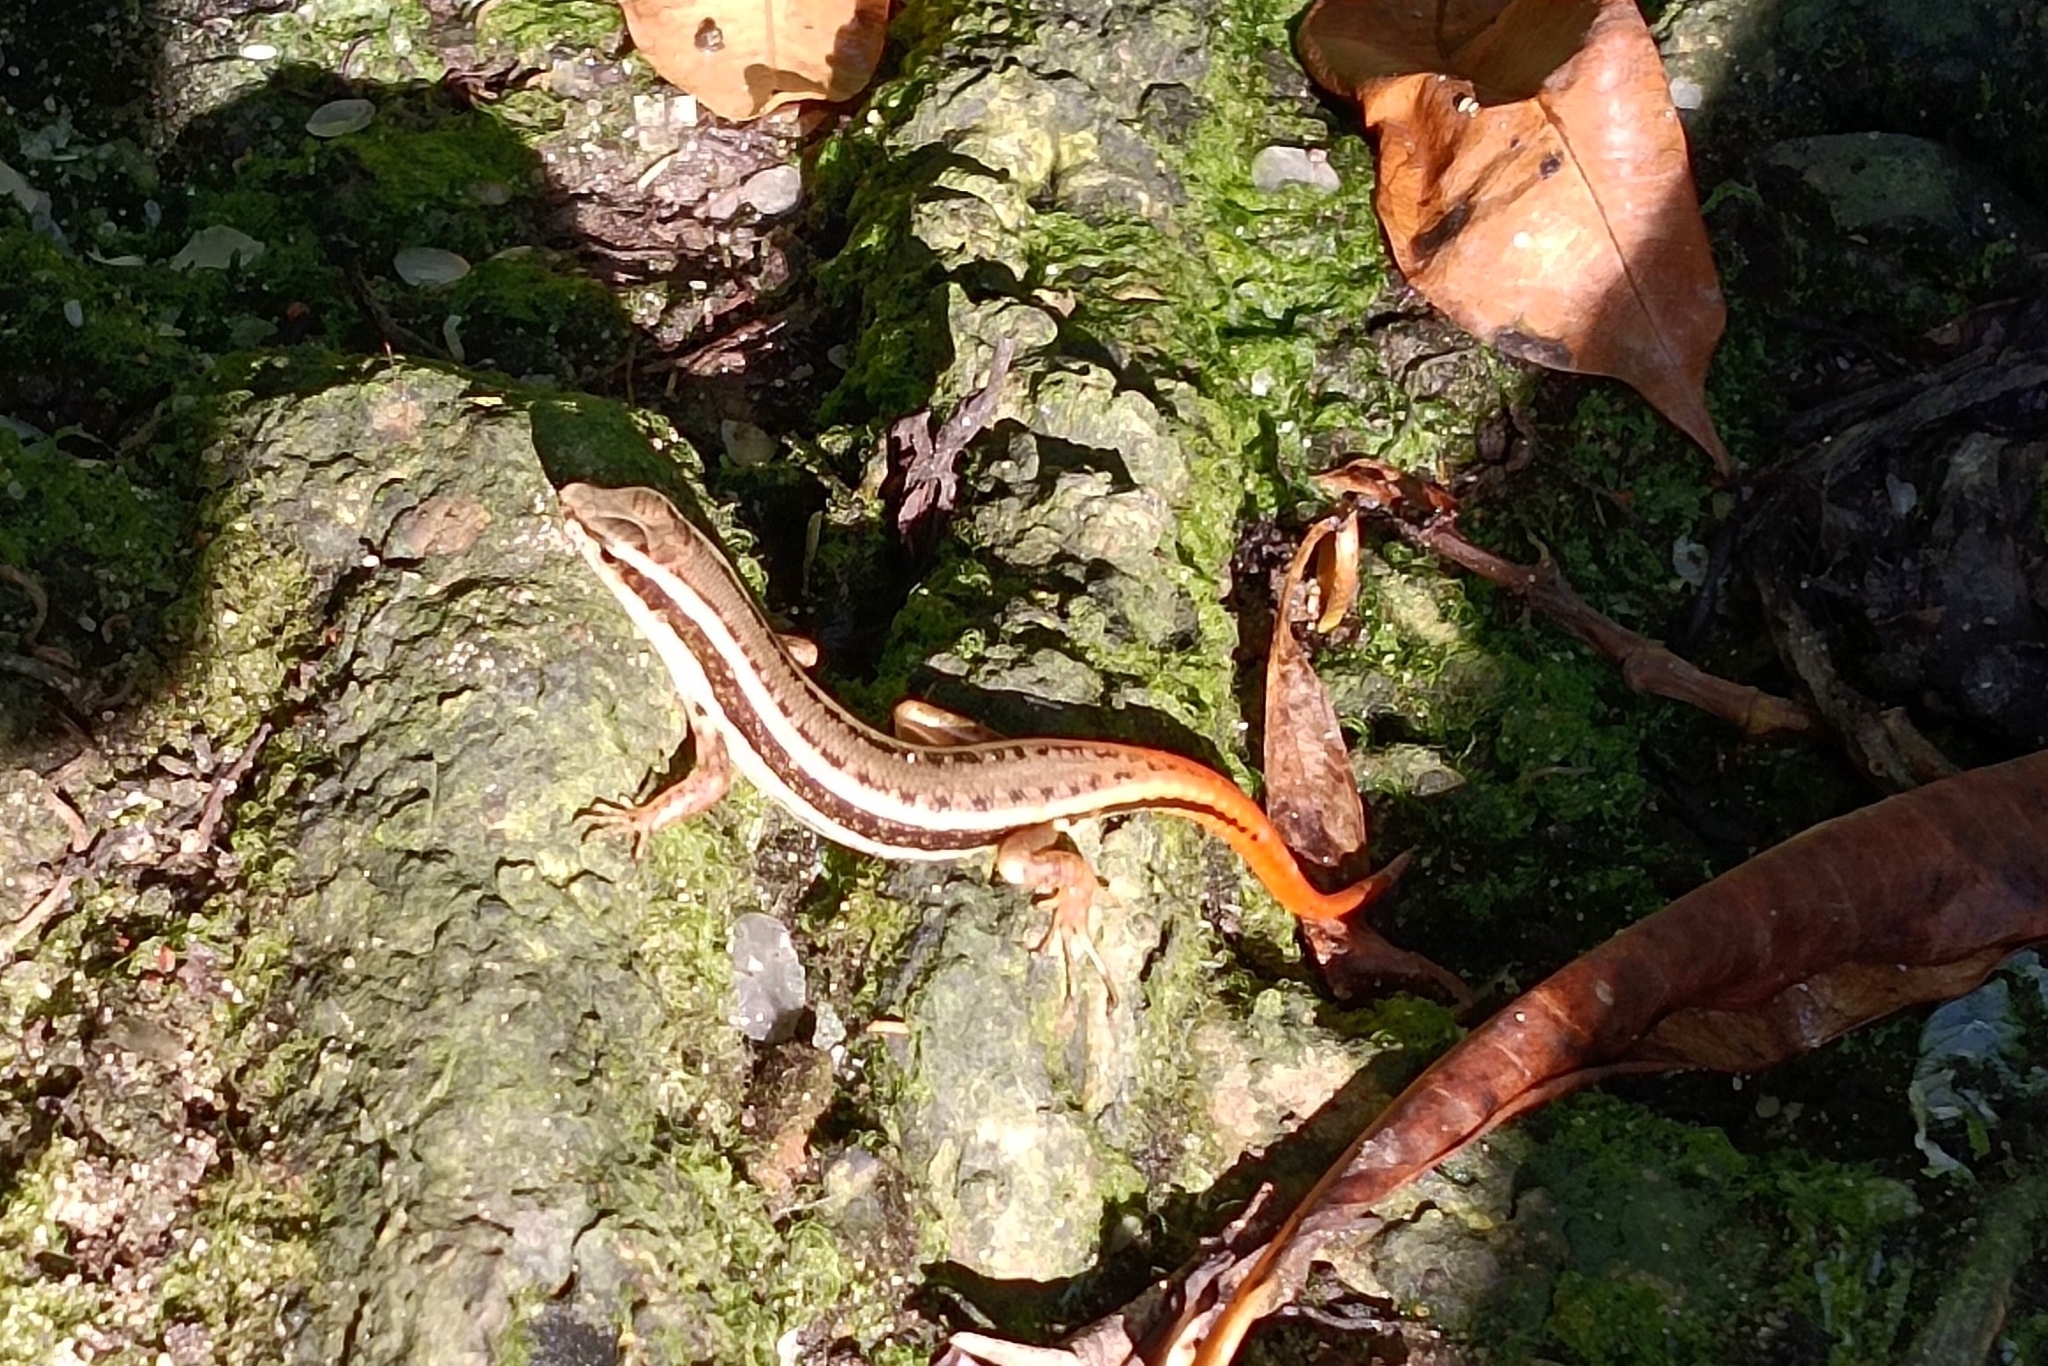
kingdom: Animalia
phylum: Chordata
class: Squamata
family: Scincidae
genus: Sphenomorphus
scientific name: Sphenomorphus dussumieri
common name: Dussumier's forest skink
